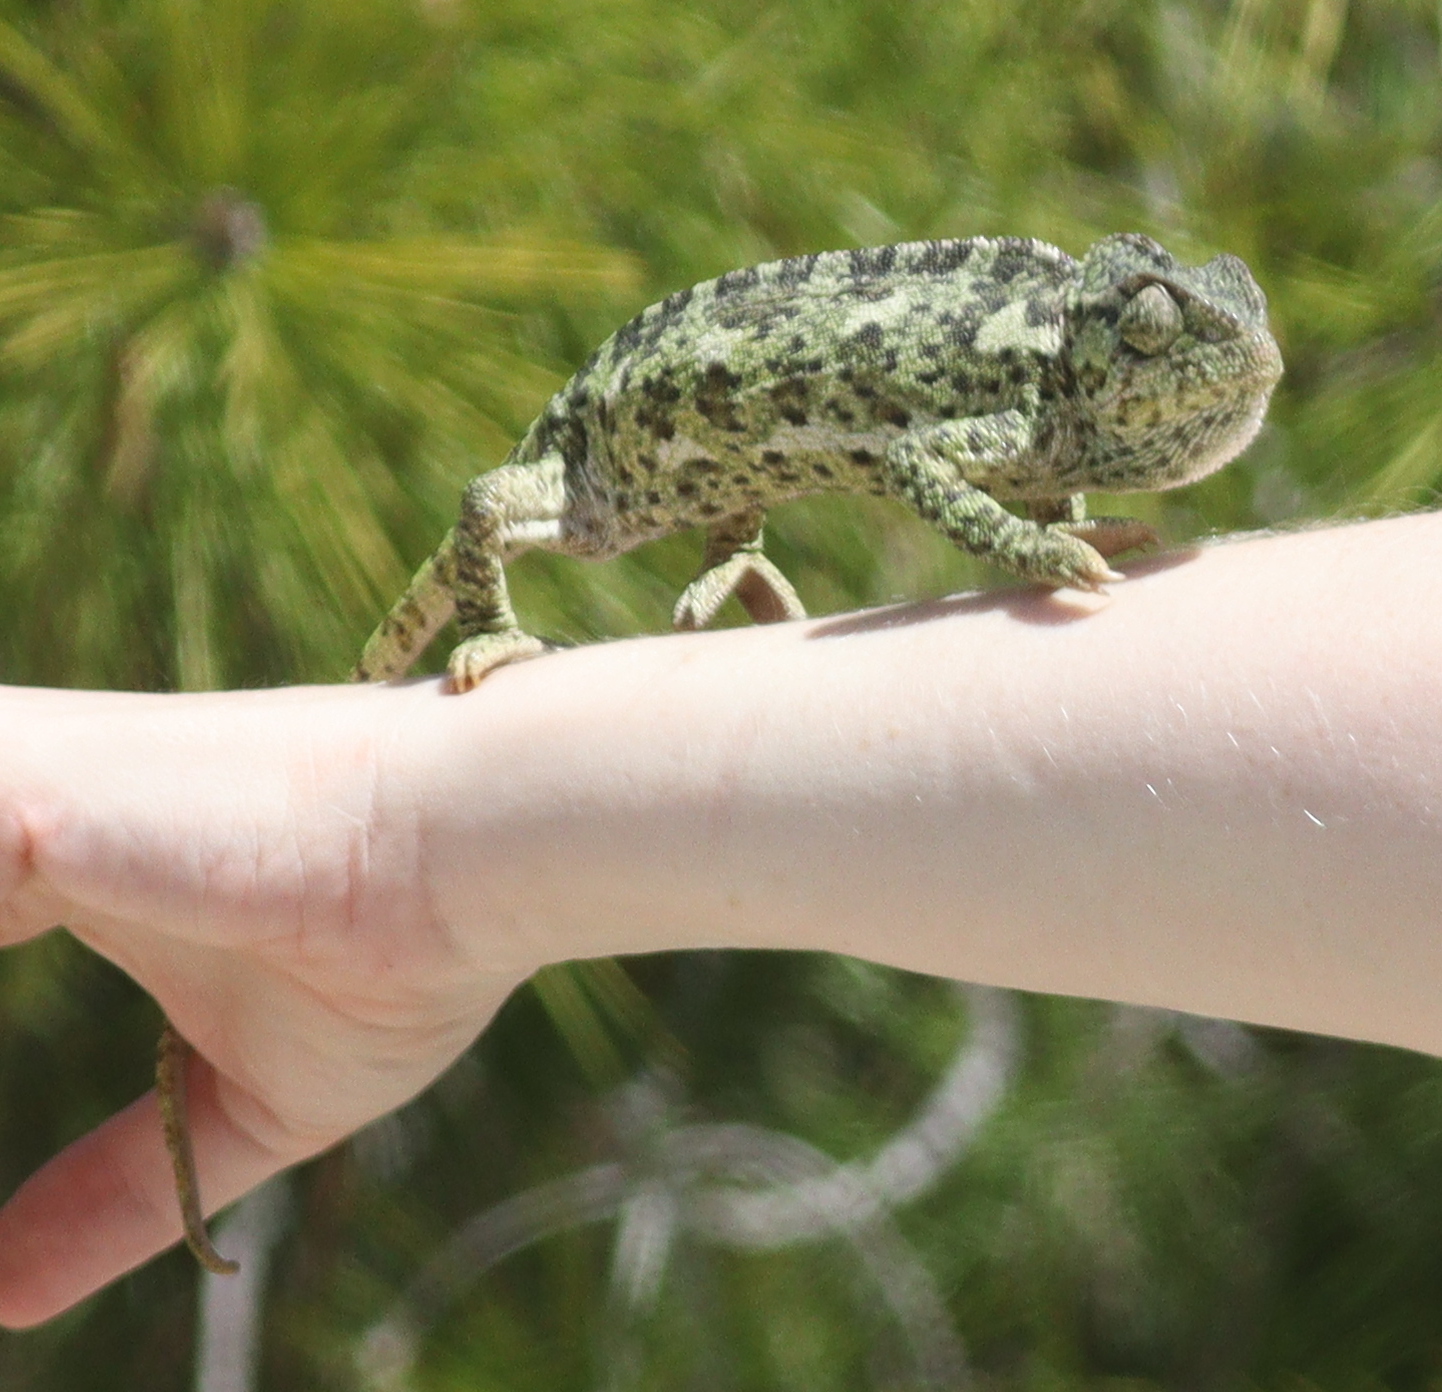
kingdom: Animalia
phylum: Chordata
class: Squamata
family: Chamaeleonidae
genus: Chamaeleo
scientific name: Chamaeleo chamaeleon
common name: Mediterranean chameleon
